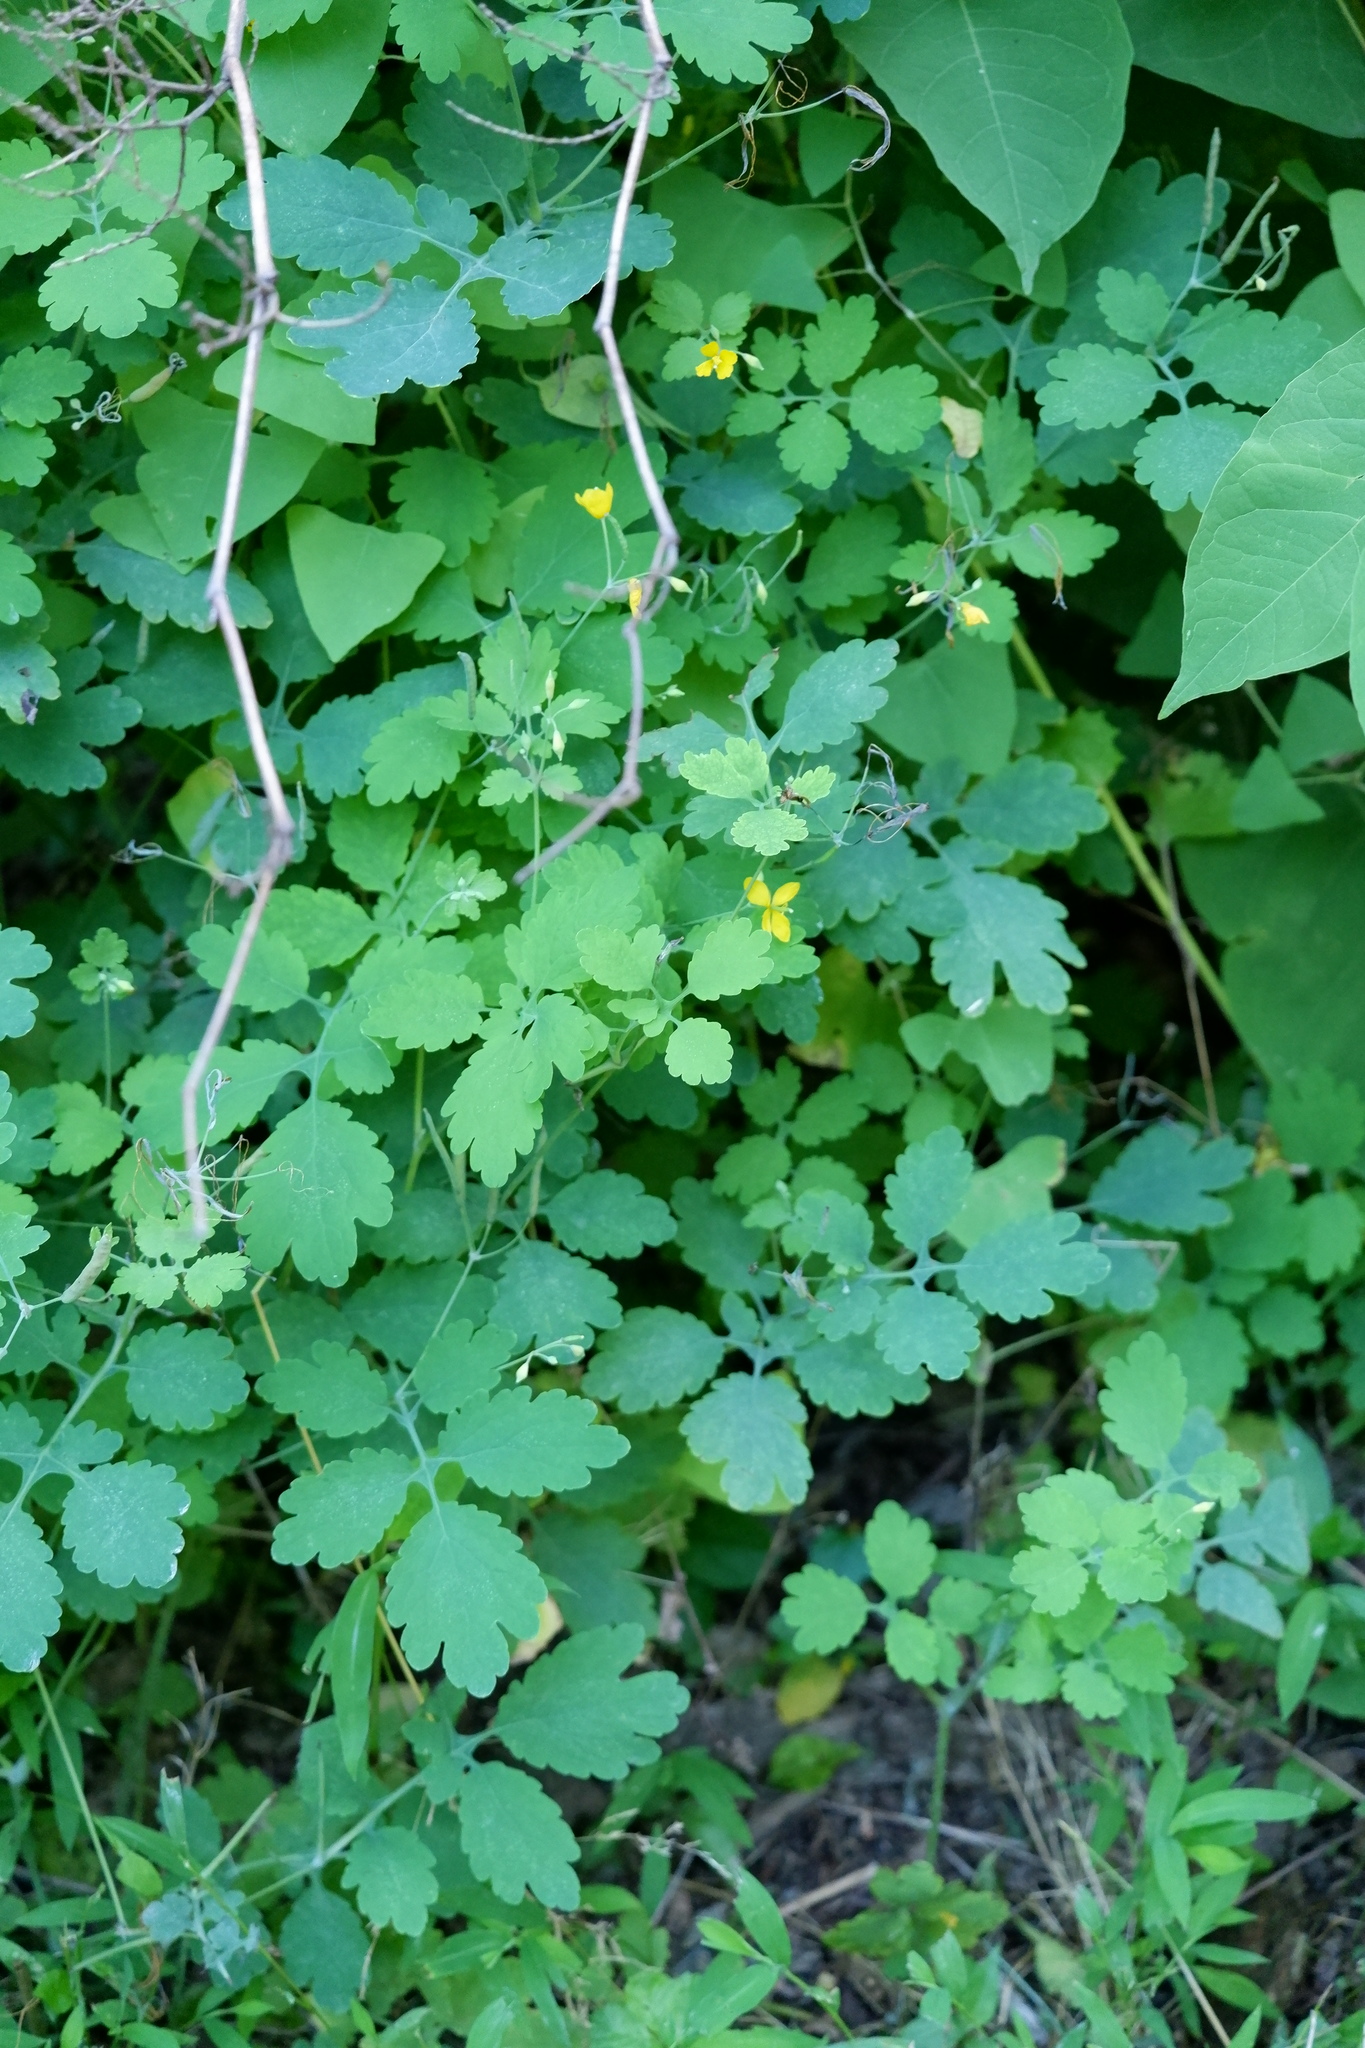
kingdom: Plantae
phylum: Tracheophyta
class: Magnoliopsida
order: Ranunculales
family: Papaveraceae
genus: Chelidonium
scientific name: Chelidonium majus
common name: Greater celandine
